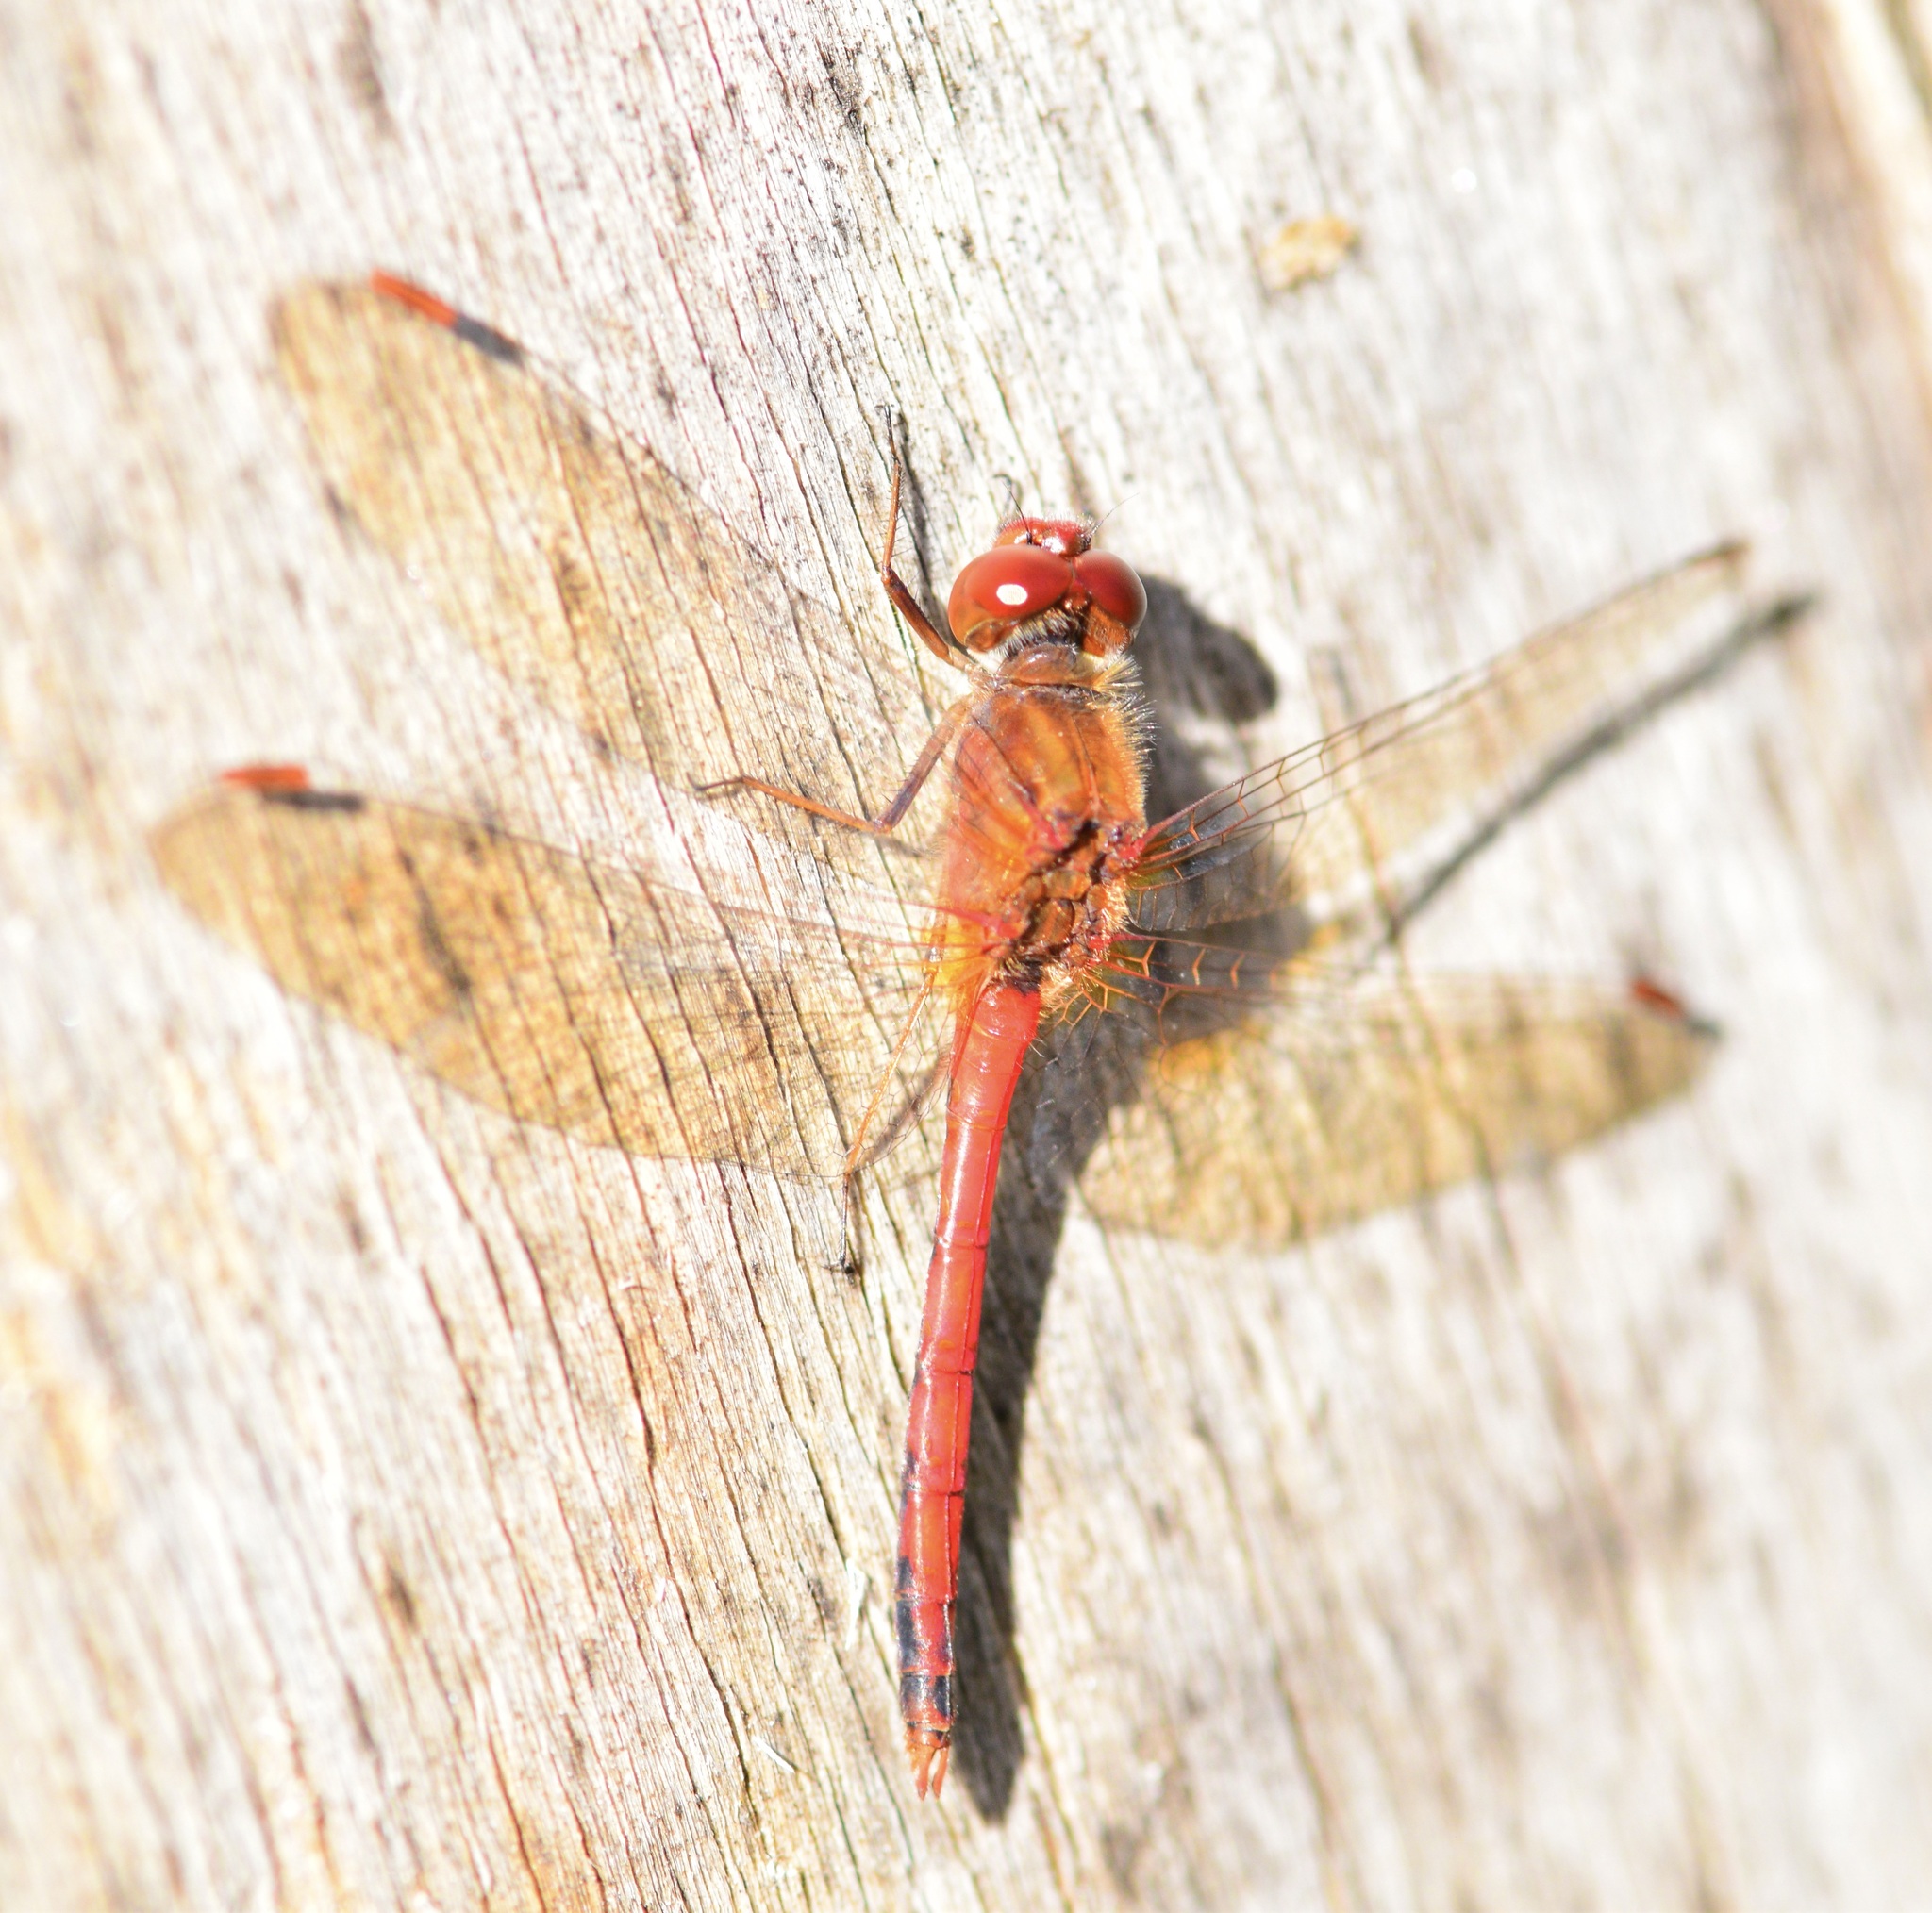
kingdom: Animalia
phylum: Arthropoda
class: Insecta
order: Odonata
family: Libellulidae
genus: Sympetrum
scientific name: Sympetrum vicinum
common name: Autumn meadowhawk
